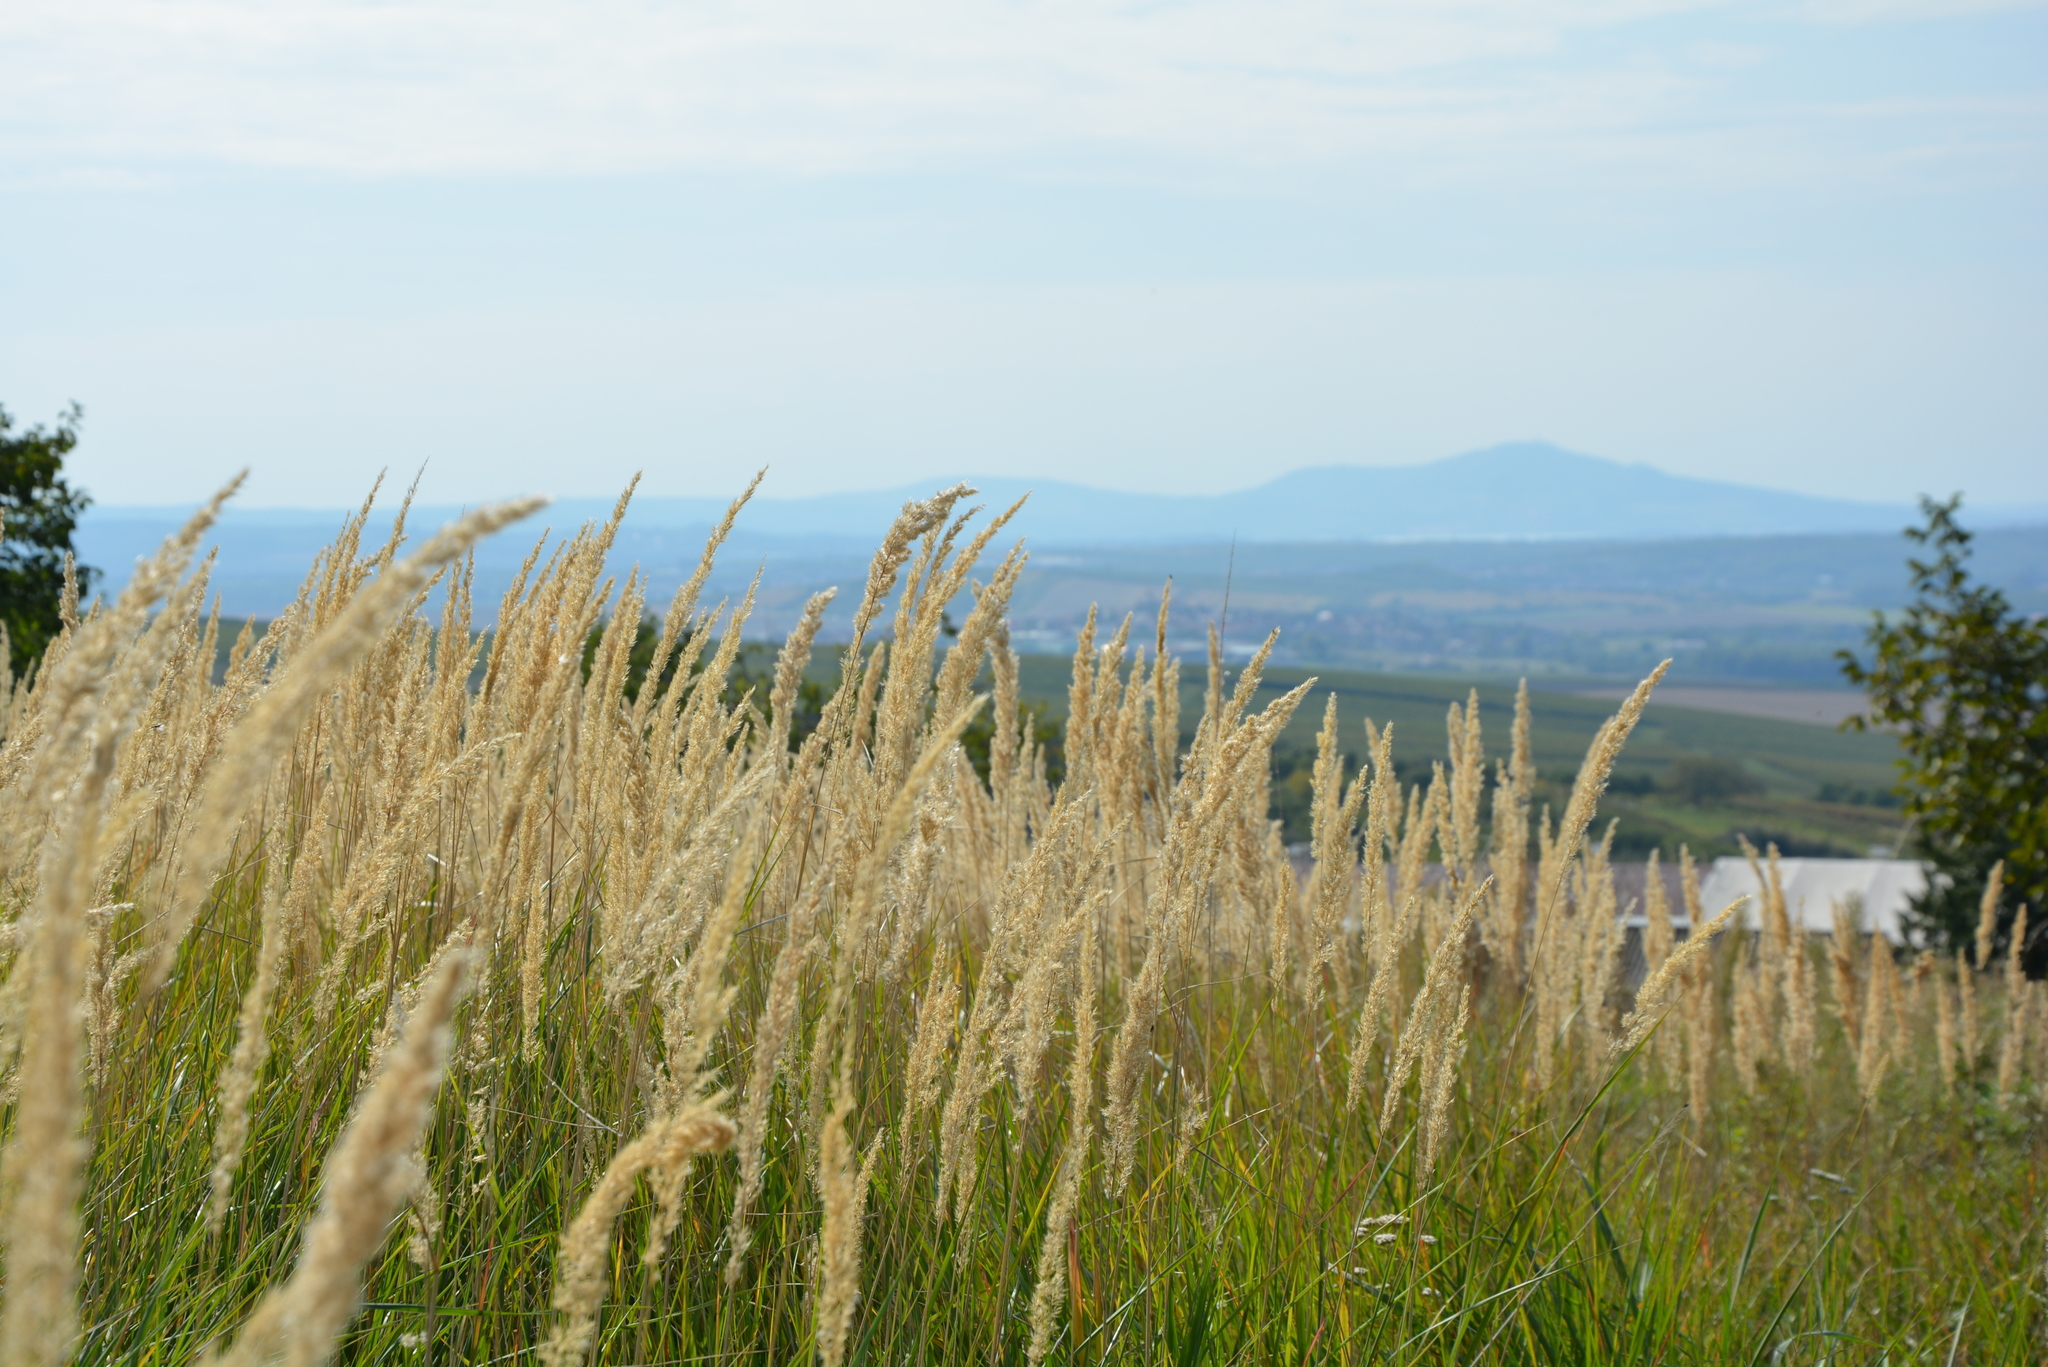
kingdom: Plantae
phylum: Tracheophyta
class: Liliopsida
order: Poales
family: Poaceae
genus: Calamagrostis
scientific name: Calamagrostis epigejos
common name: Wood small-reed
